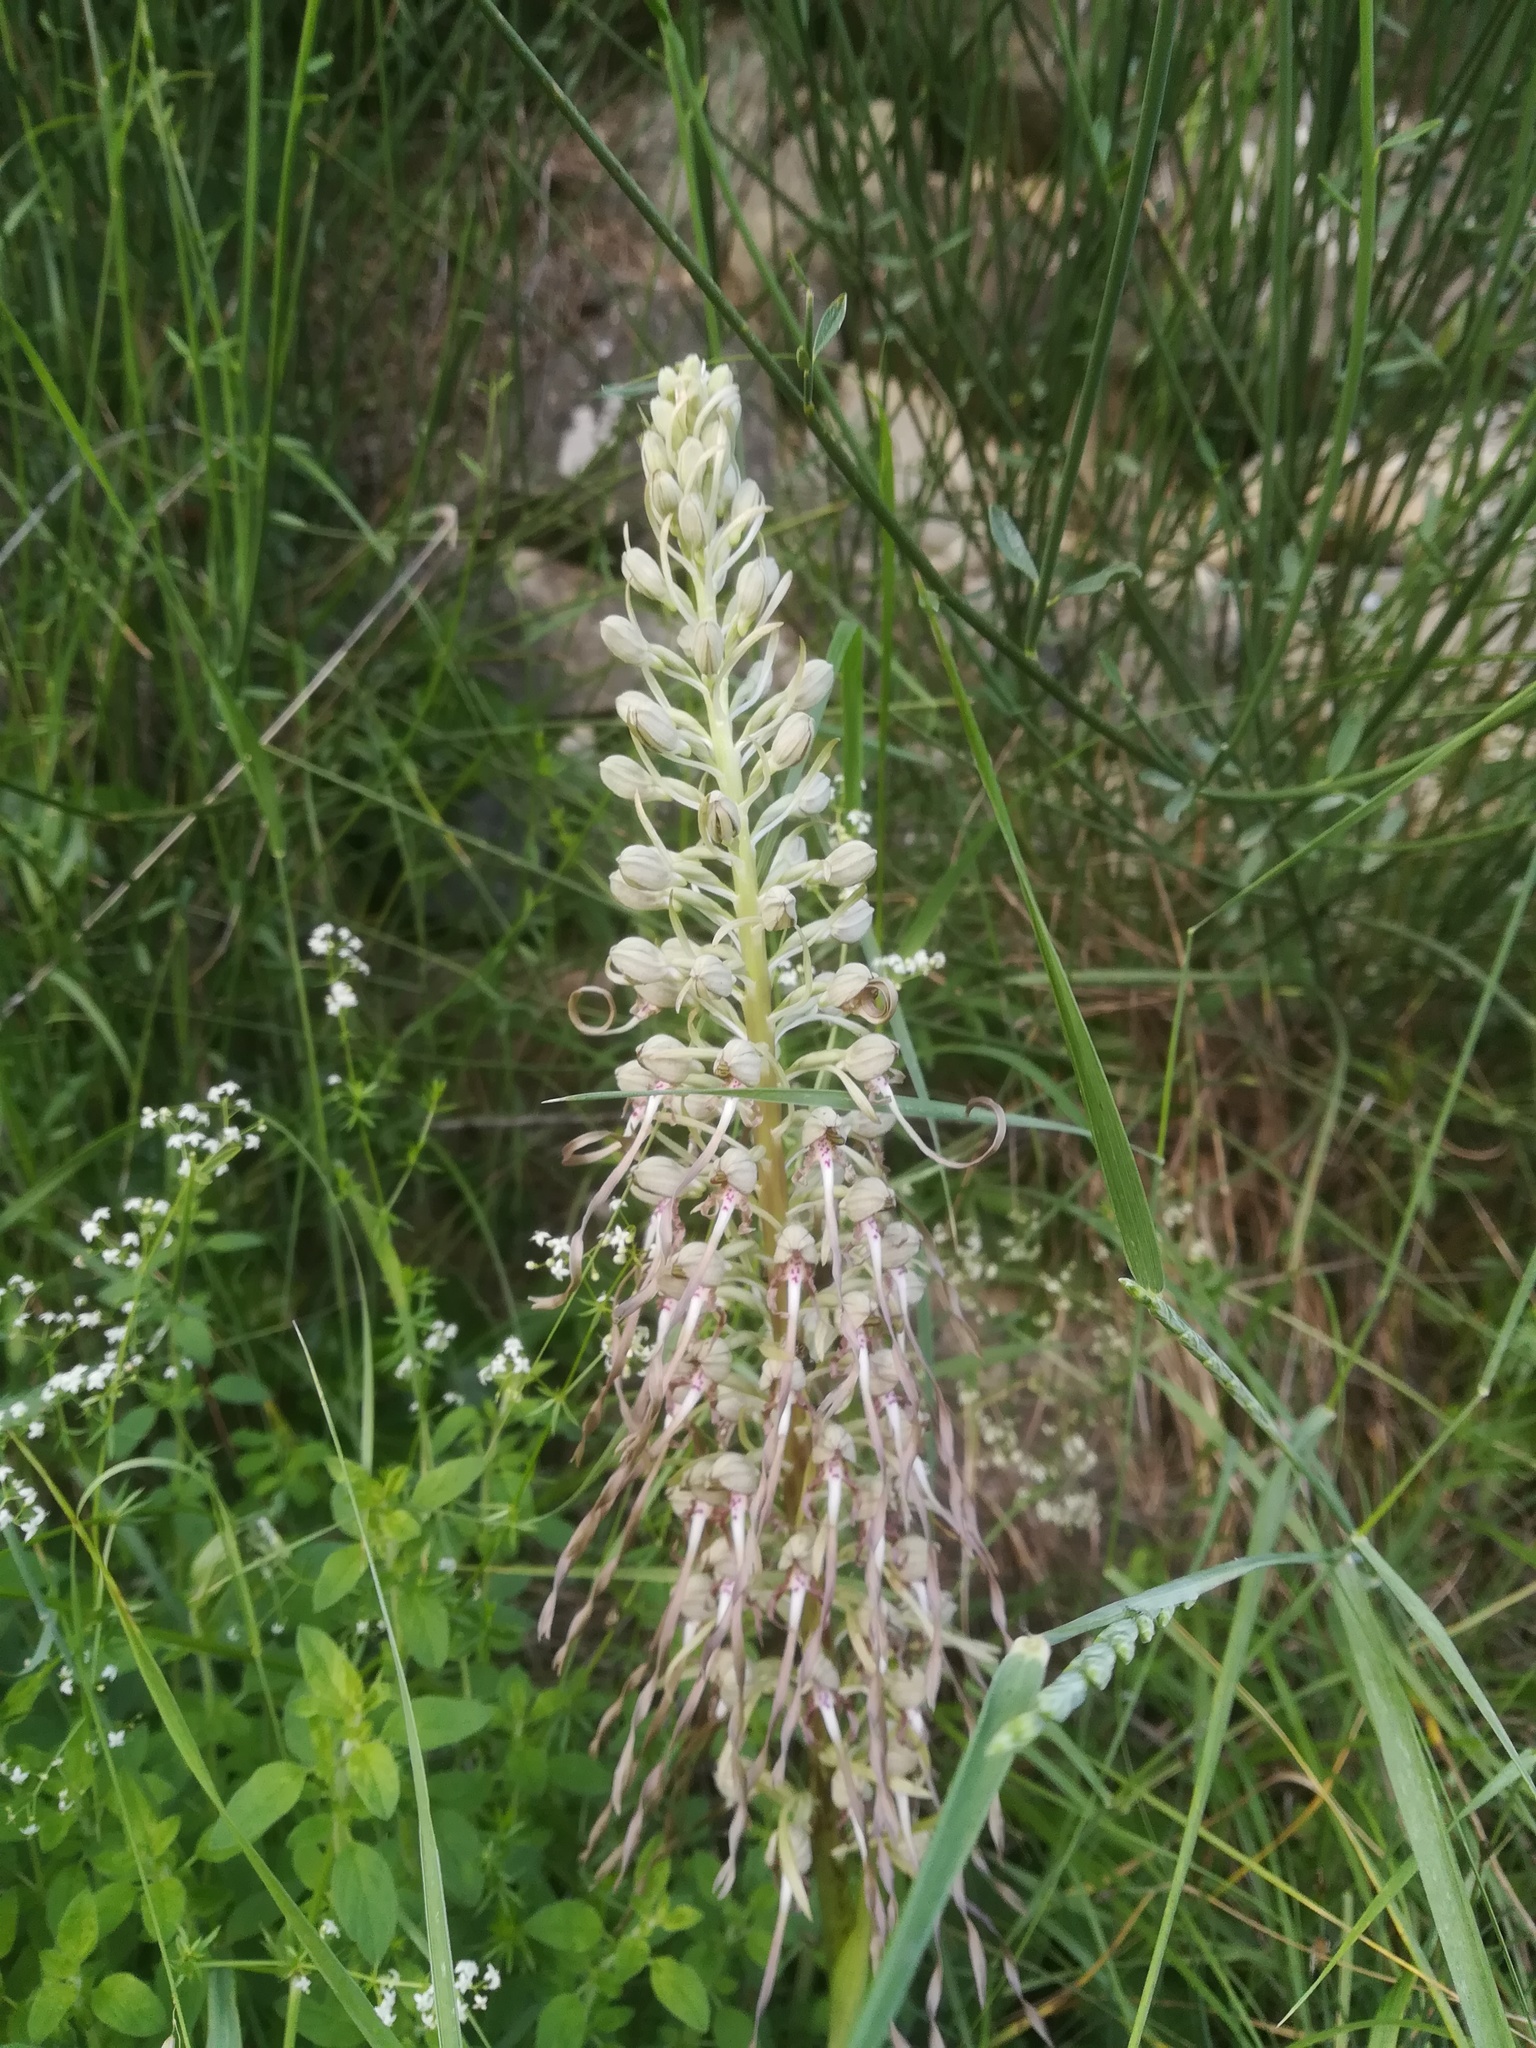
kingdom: Plantae
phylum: Tracheophyta
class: Liliopsida
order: Asparagales
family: Orchidaceae
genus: Himantoglossum
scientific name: Himantoglossum hircinum
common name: Lizard orchid
